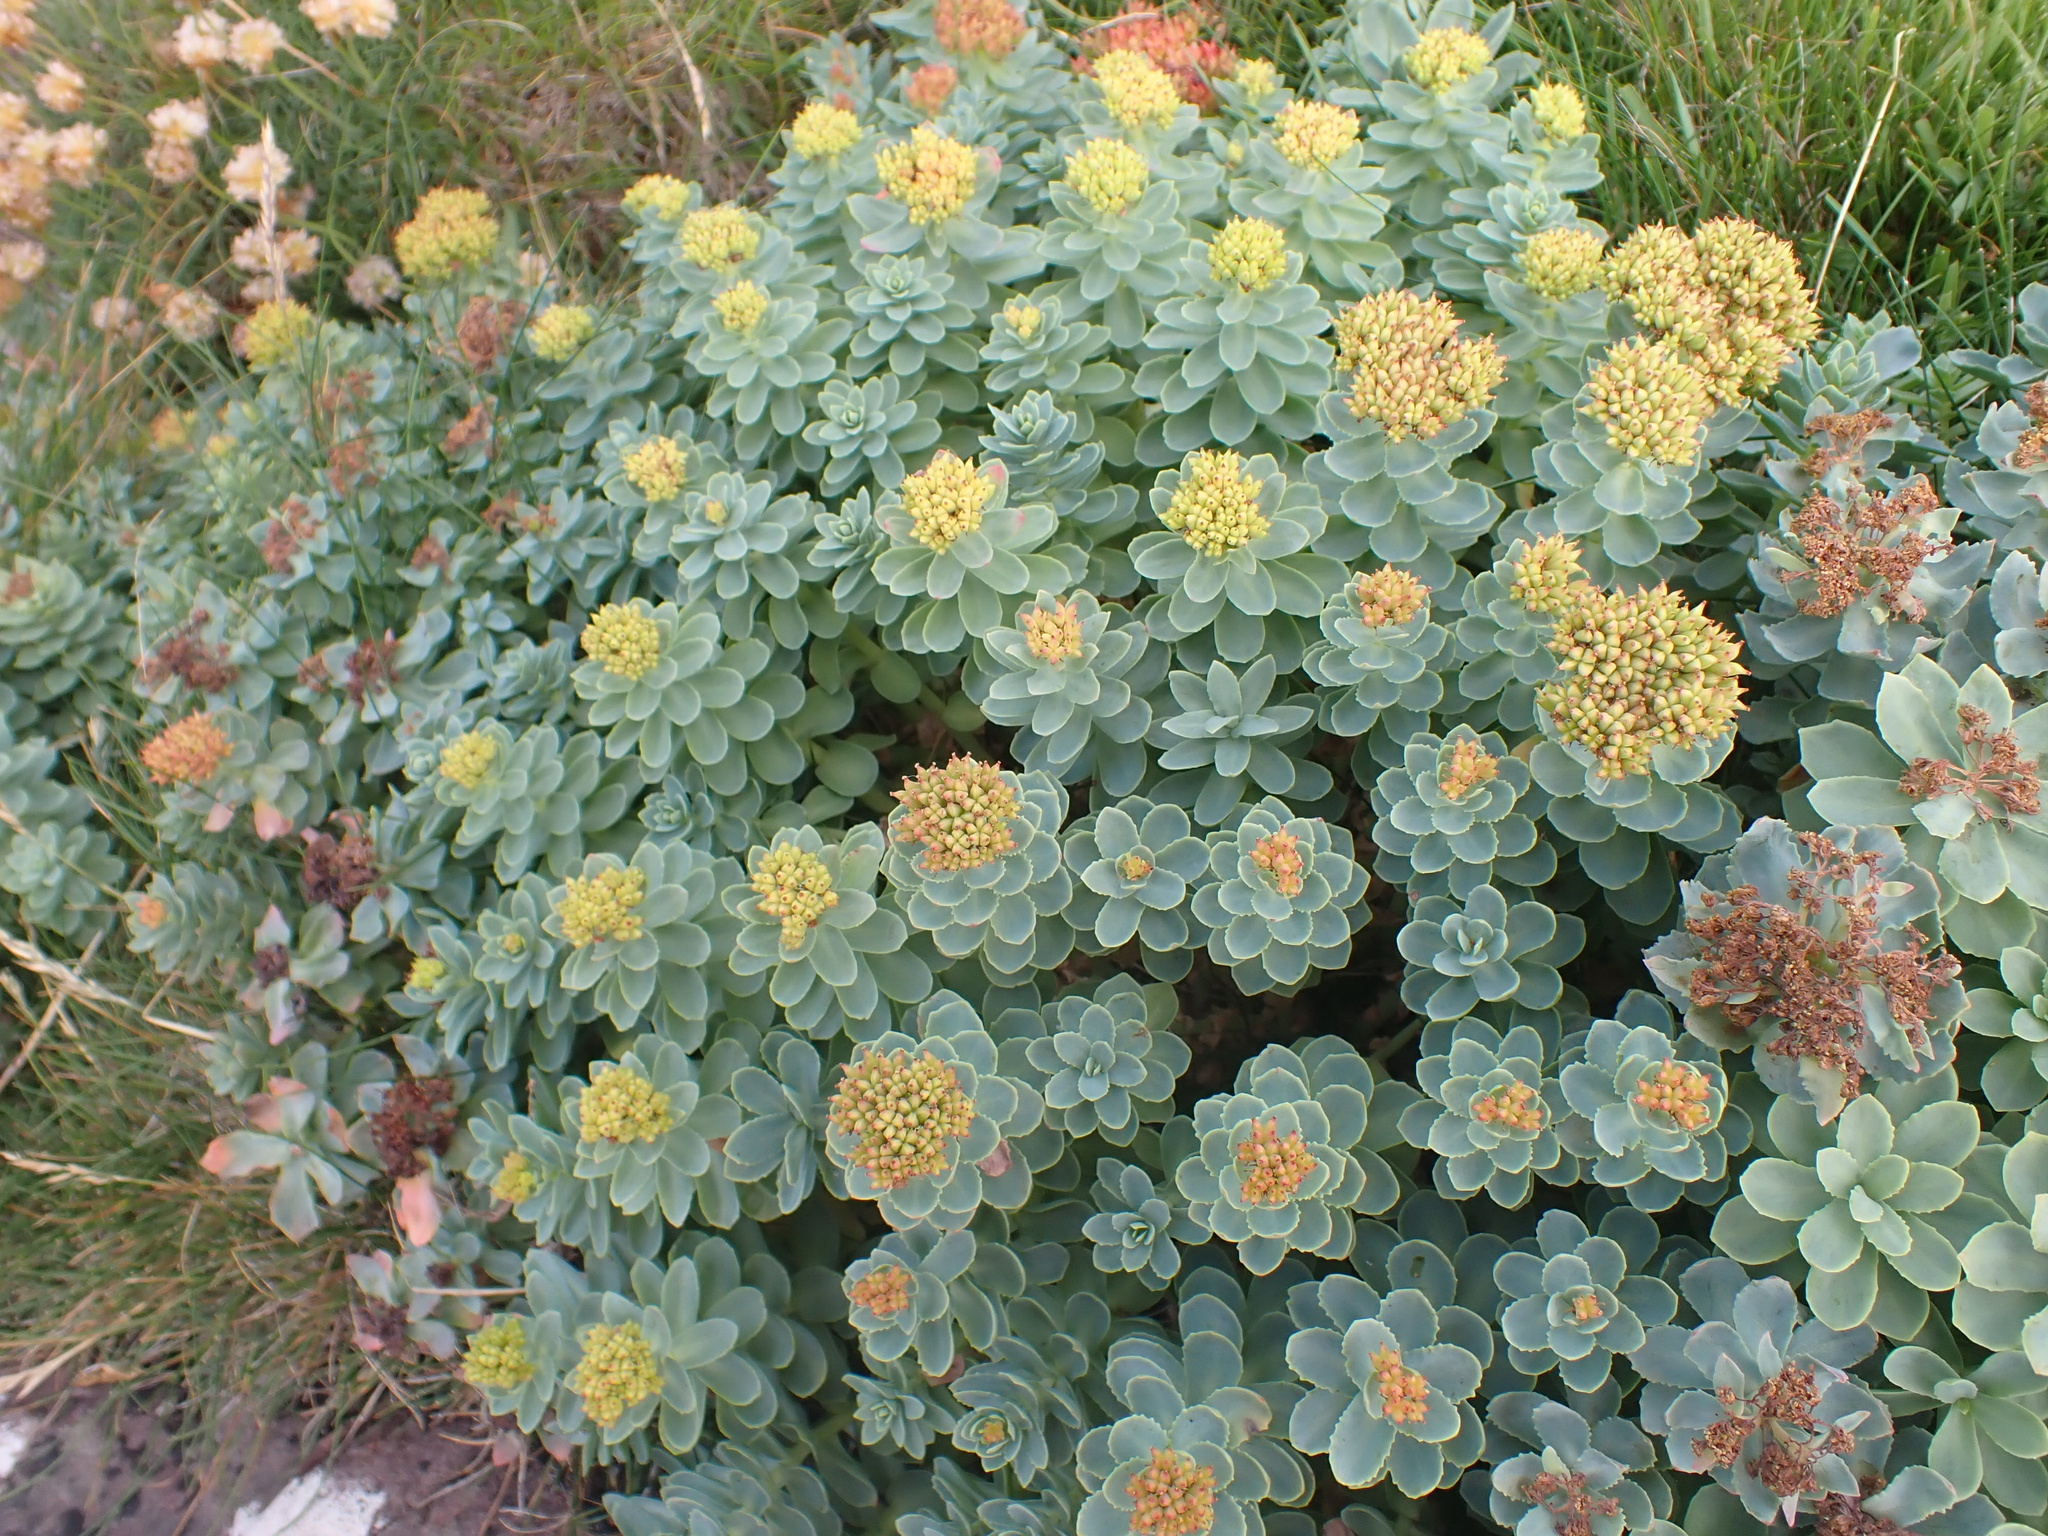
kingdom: Plantae
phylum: Tracheophyta
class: Magnoliopsida
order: Saxifragales
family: Crassulaceae
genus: Rhodiola
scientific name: Rhodiola rosea
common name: Roseroot
